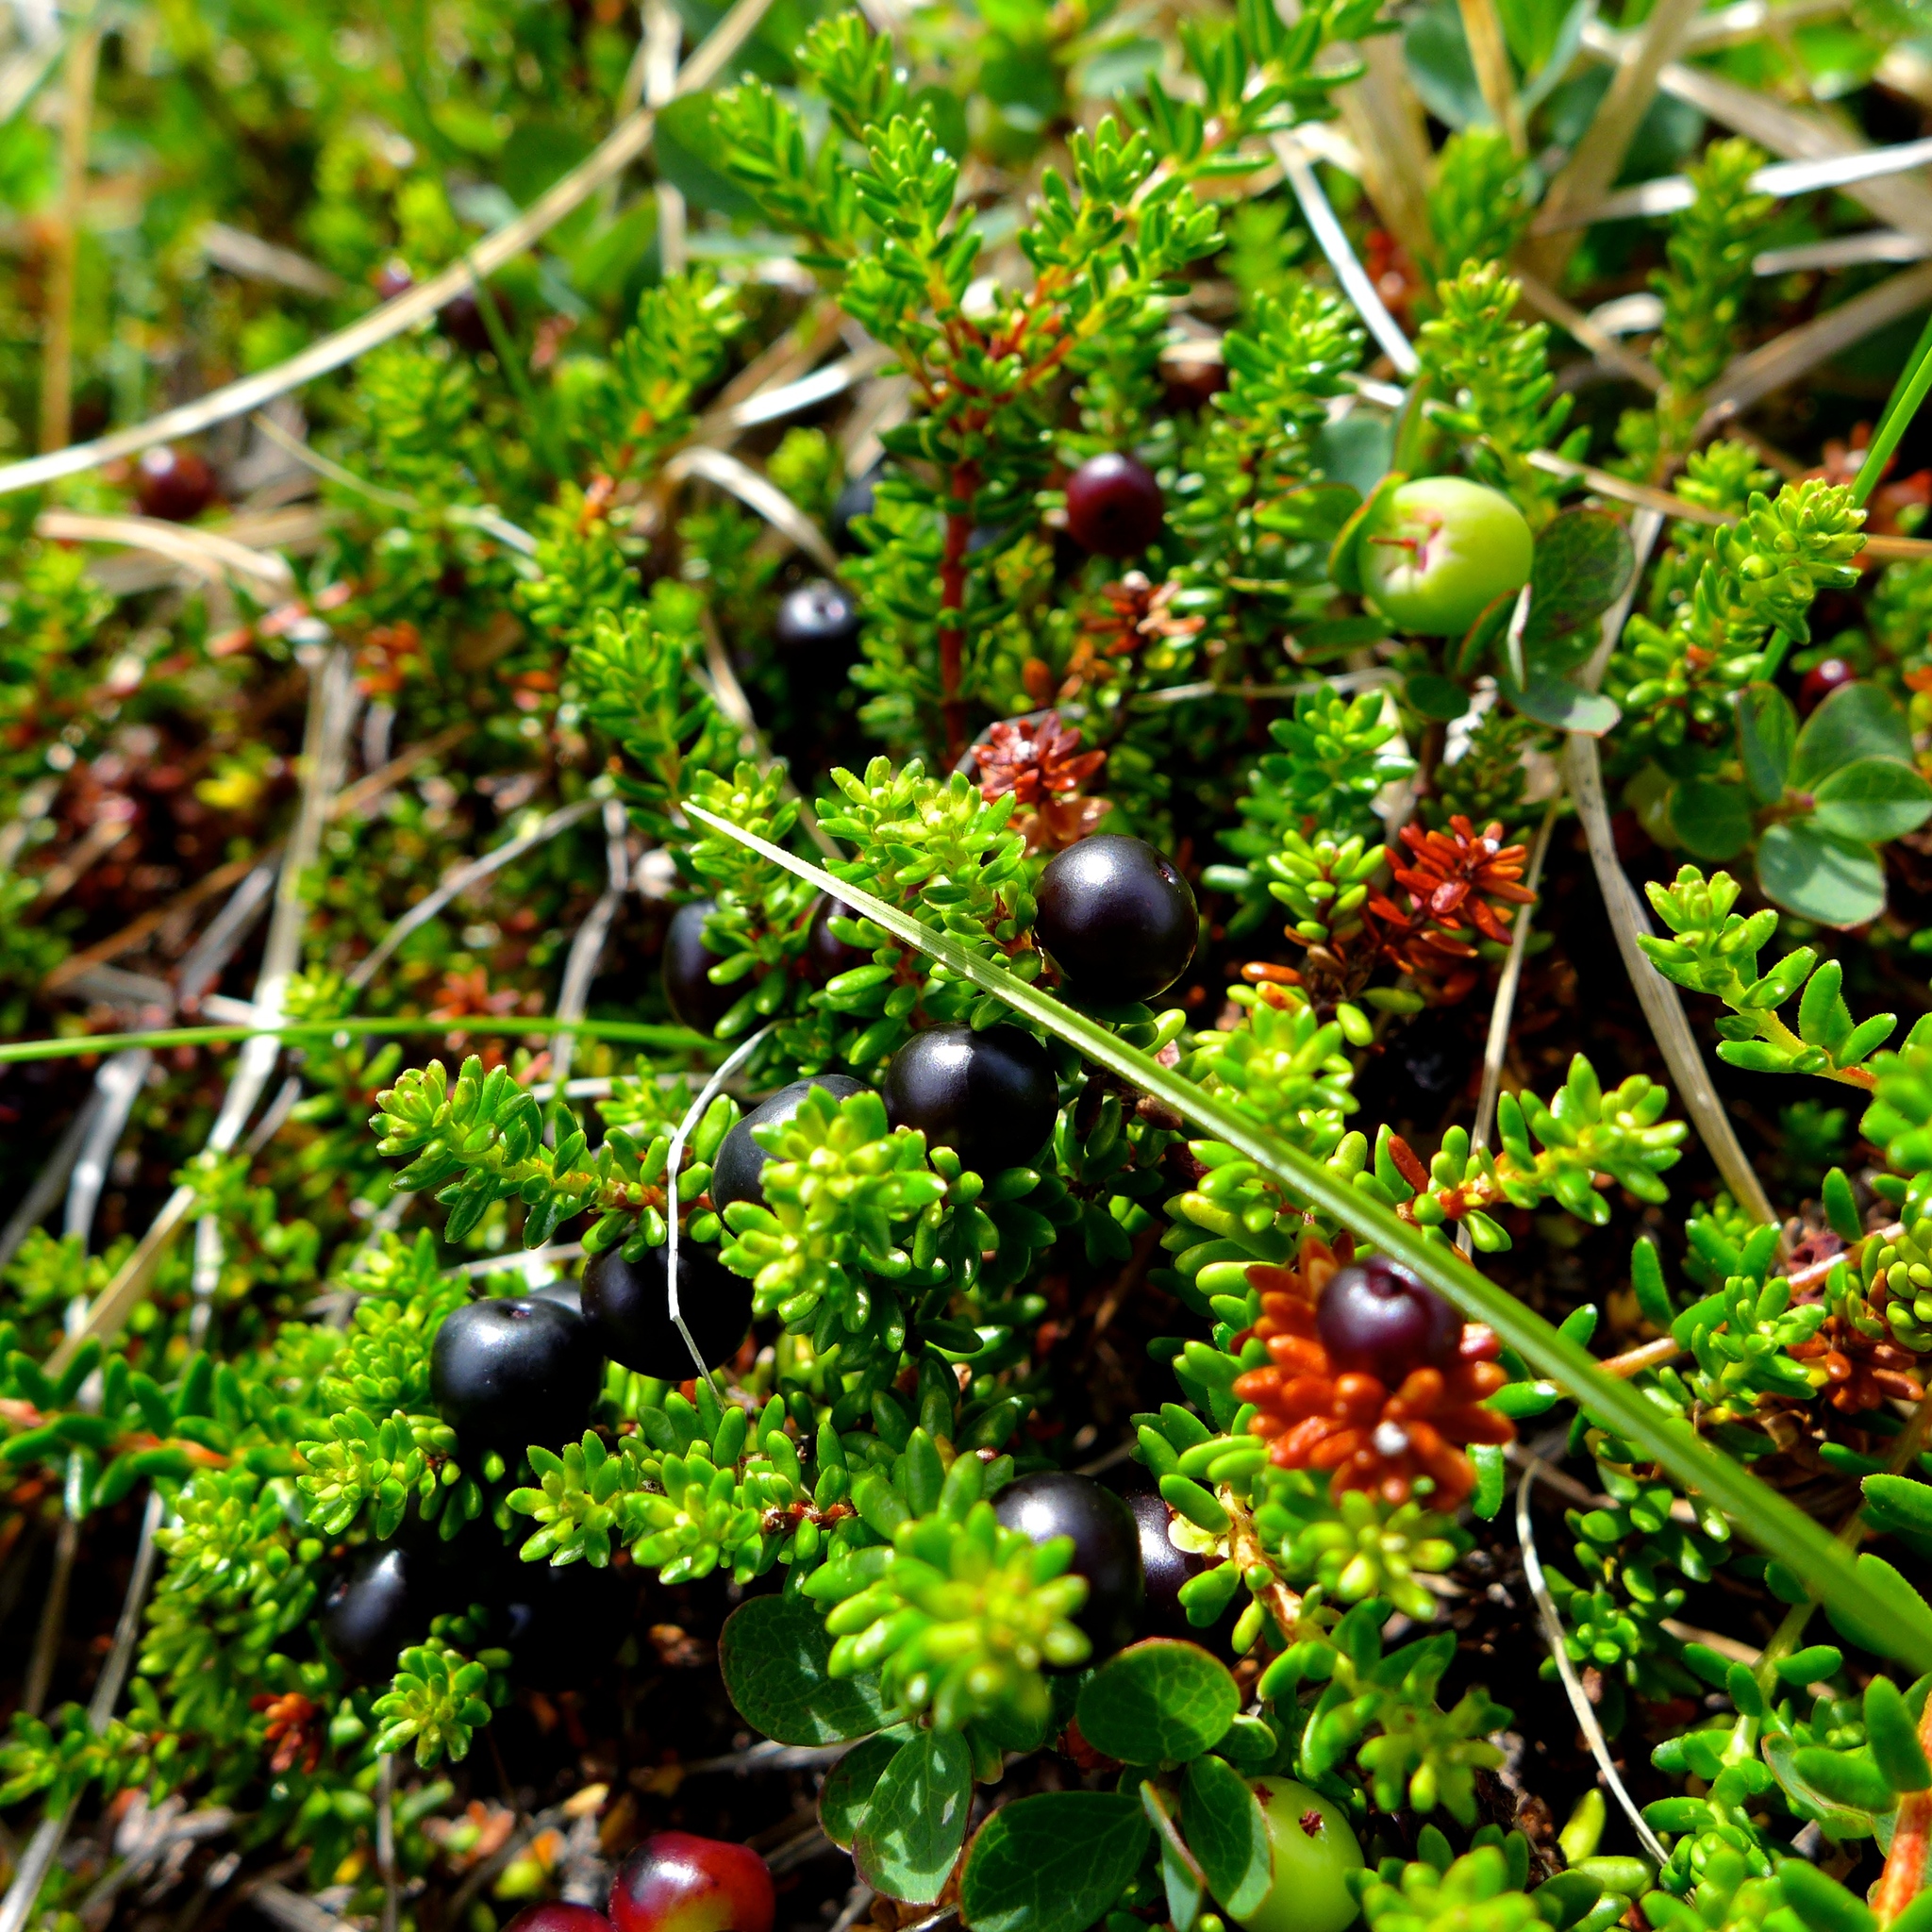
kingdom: Plantae
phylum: Tracheophyta
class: Magnoliopsida
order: Ericales
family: Ericaceae
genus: Empetrum
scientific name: Empetrum nigrum
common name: Black crowberry
